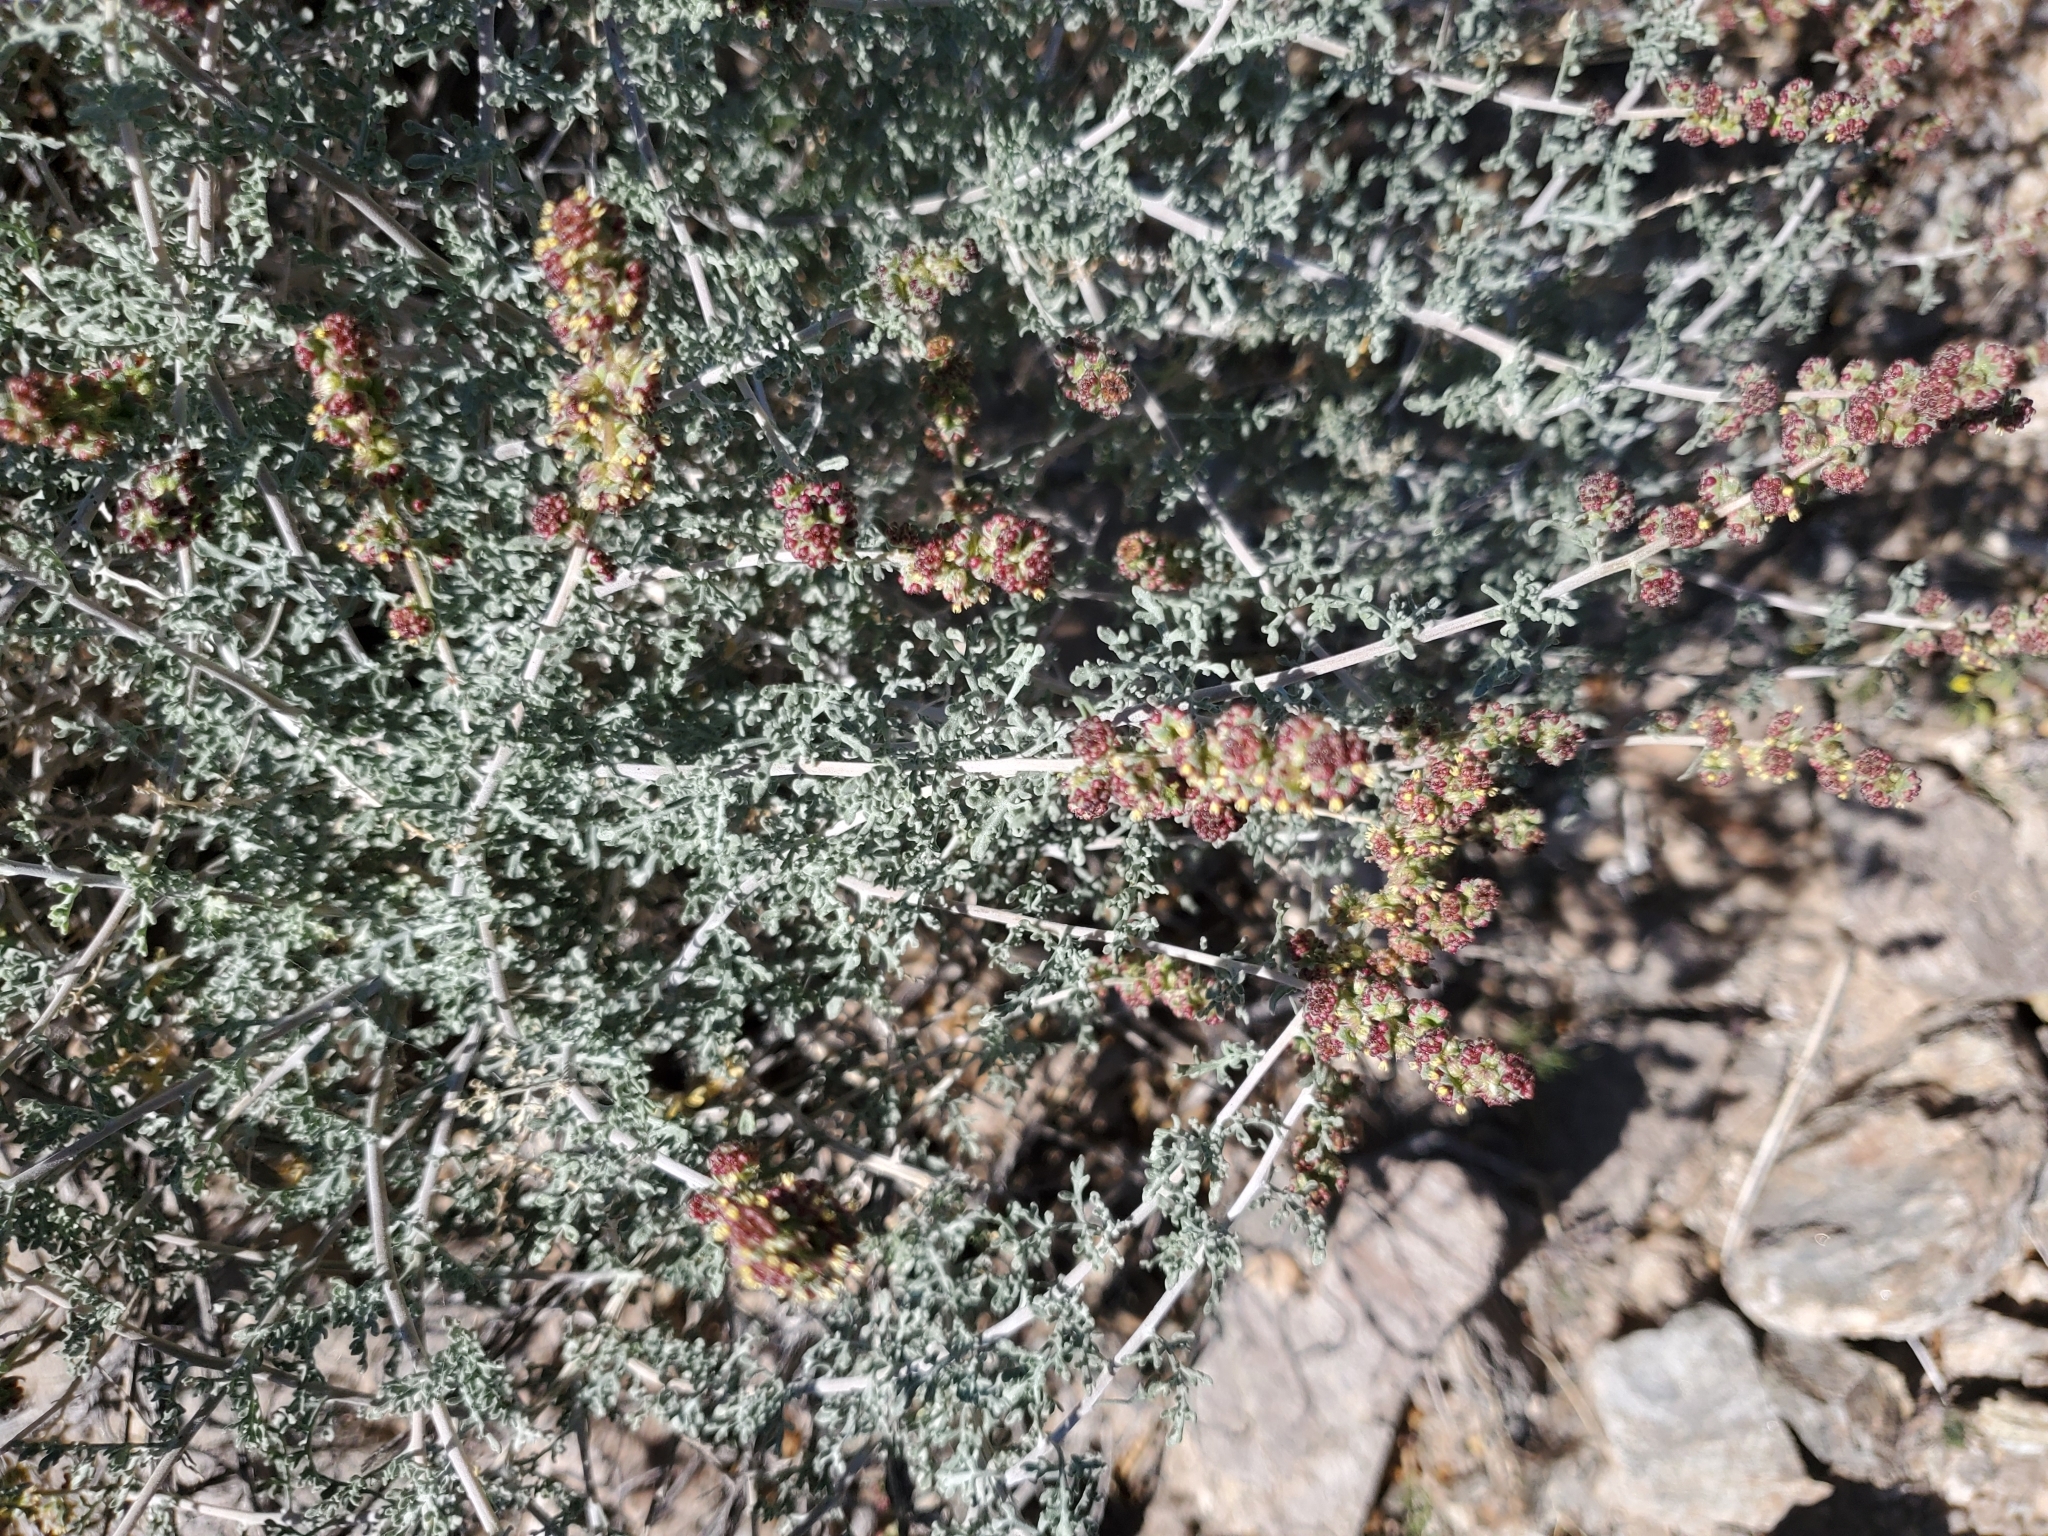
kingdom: Plantae
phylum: Tracheophyta
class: Magnoliopsida
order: Asterales
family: Asteraceae
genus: Ambrosia
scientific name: Ambrosia dumosa
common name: Bur-sage
